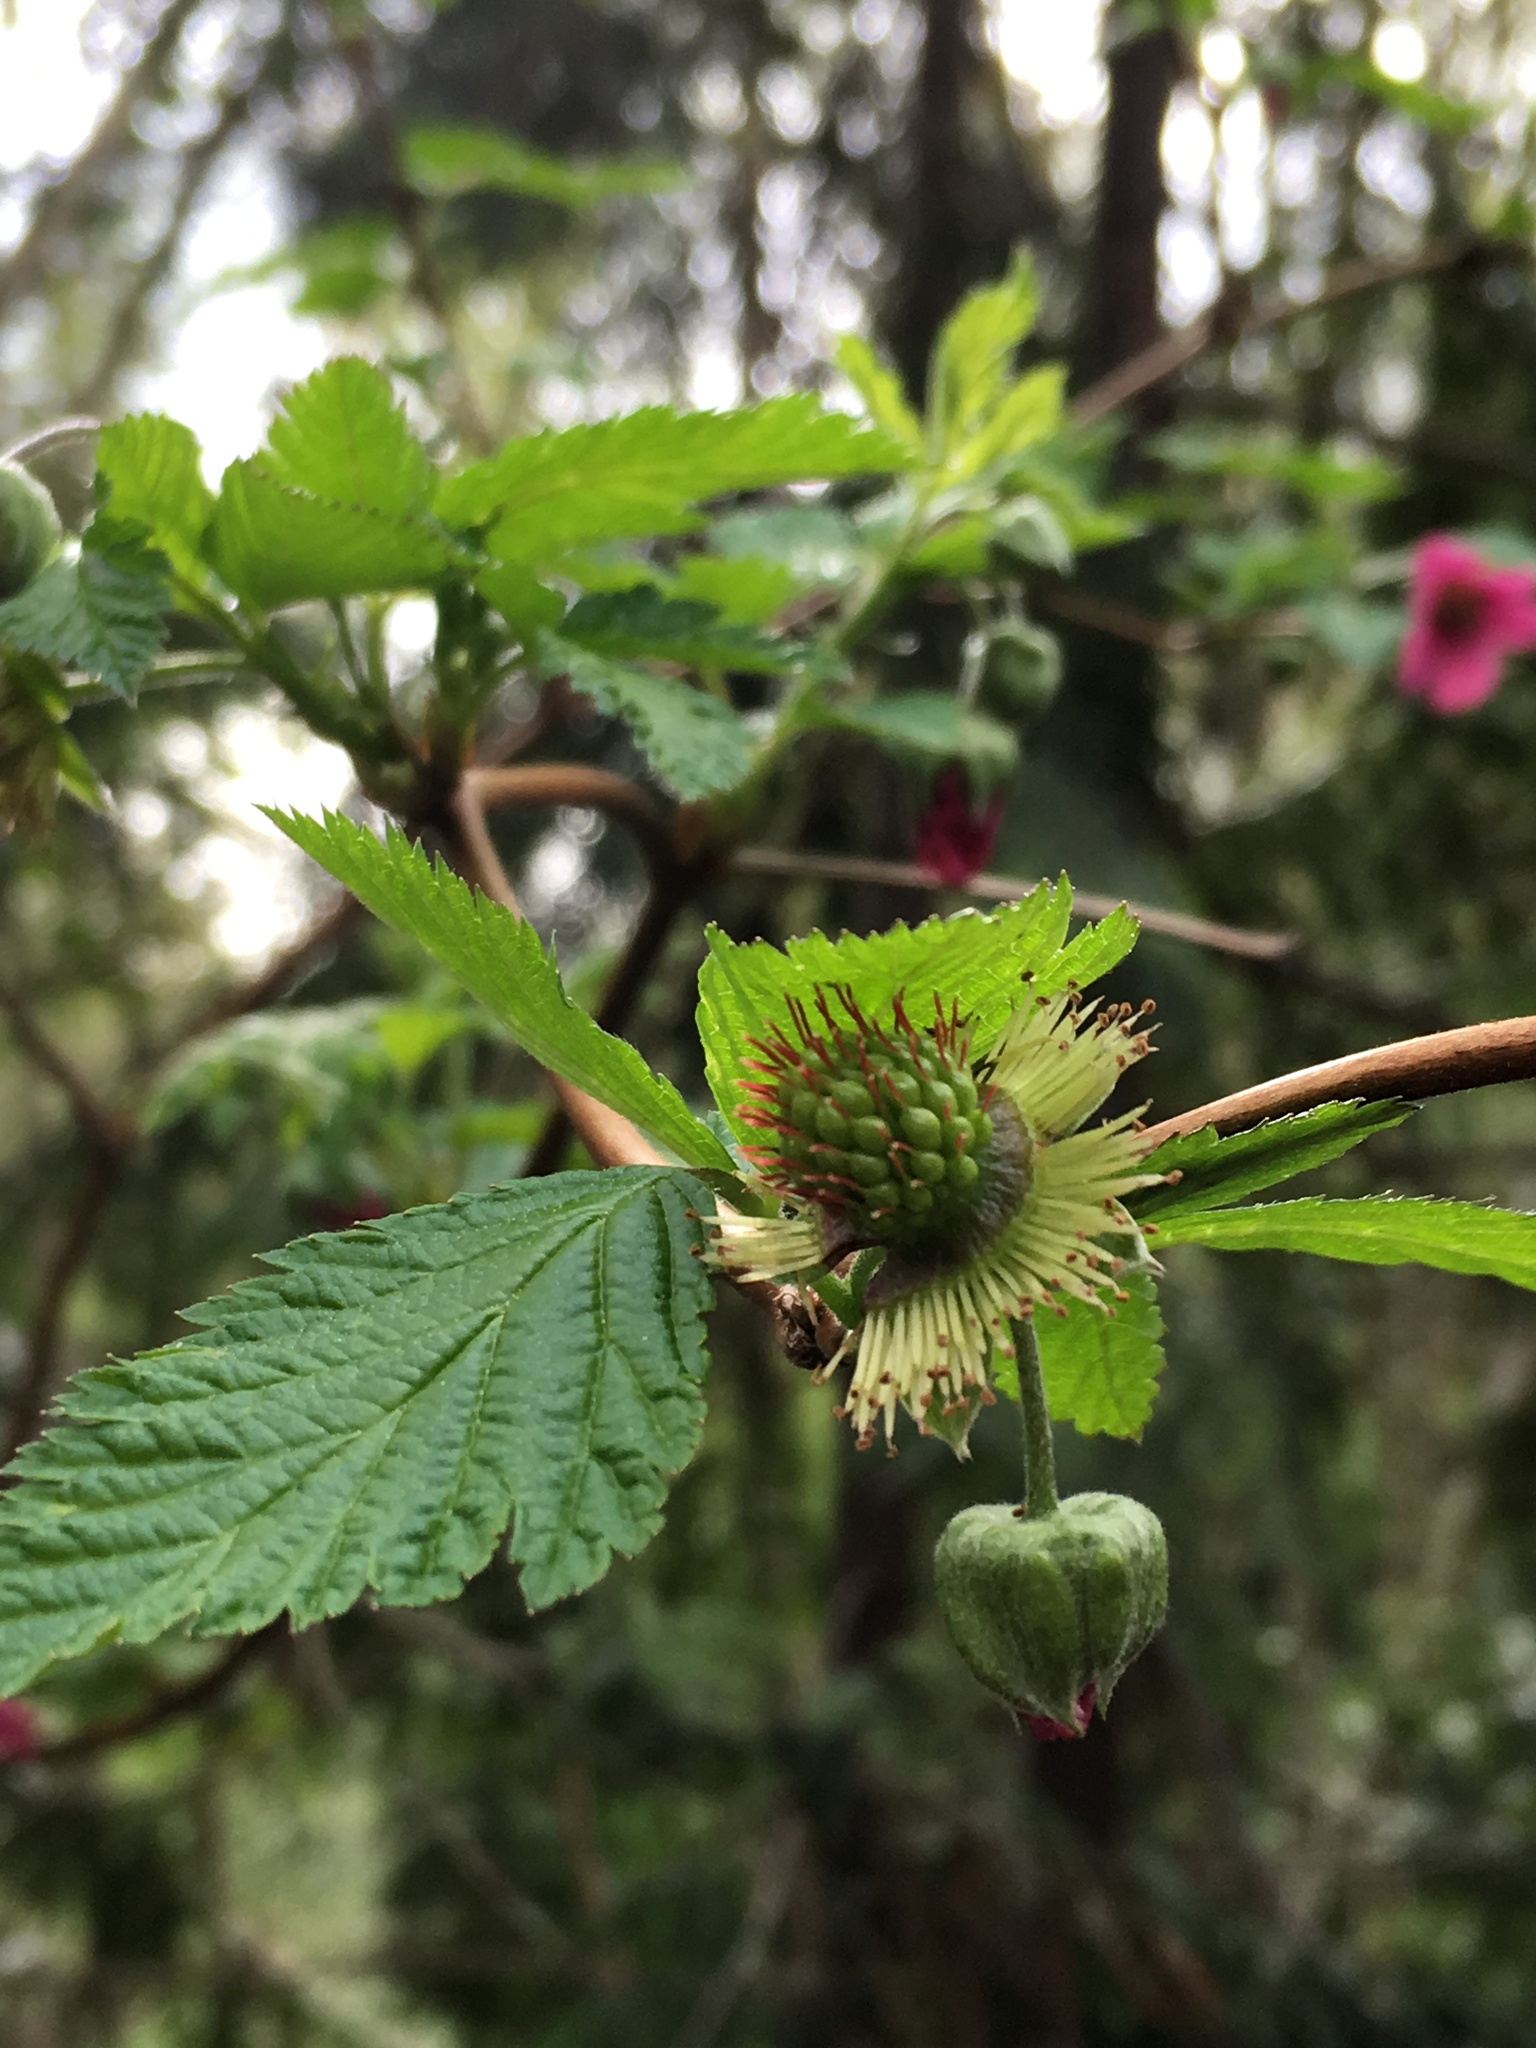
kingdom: Plantae
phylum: Tracheophyta
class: Magnoliopsida
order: Rosales
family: Rosaceae
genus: Rubus
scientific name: Rubus spectabilis
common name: Salmonberry
